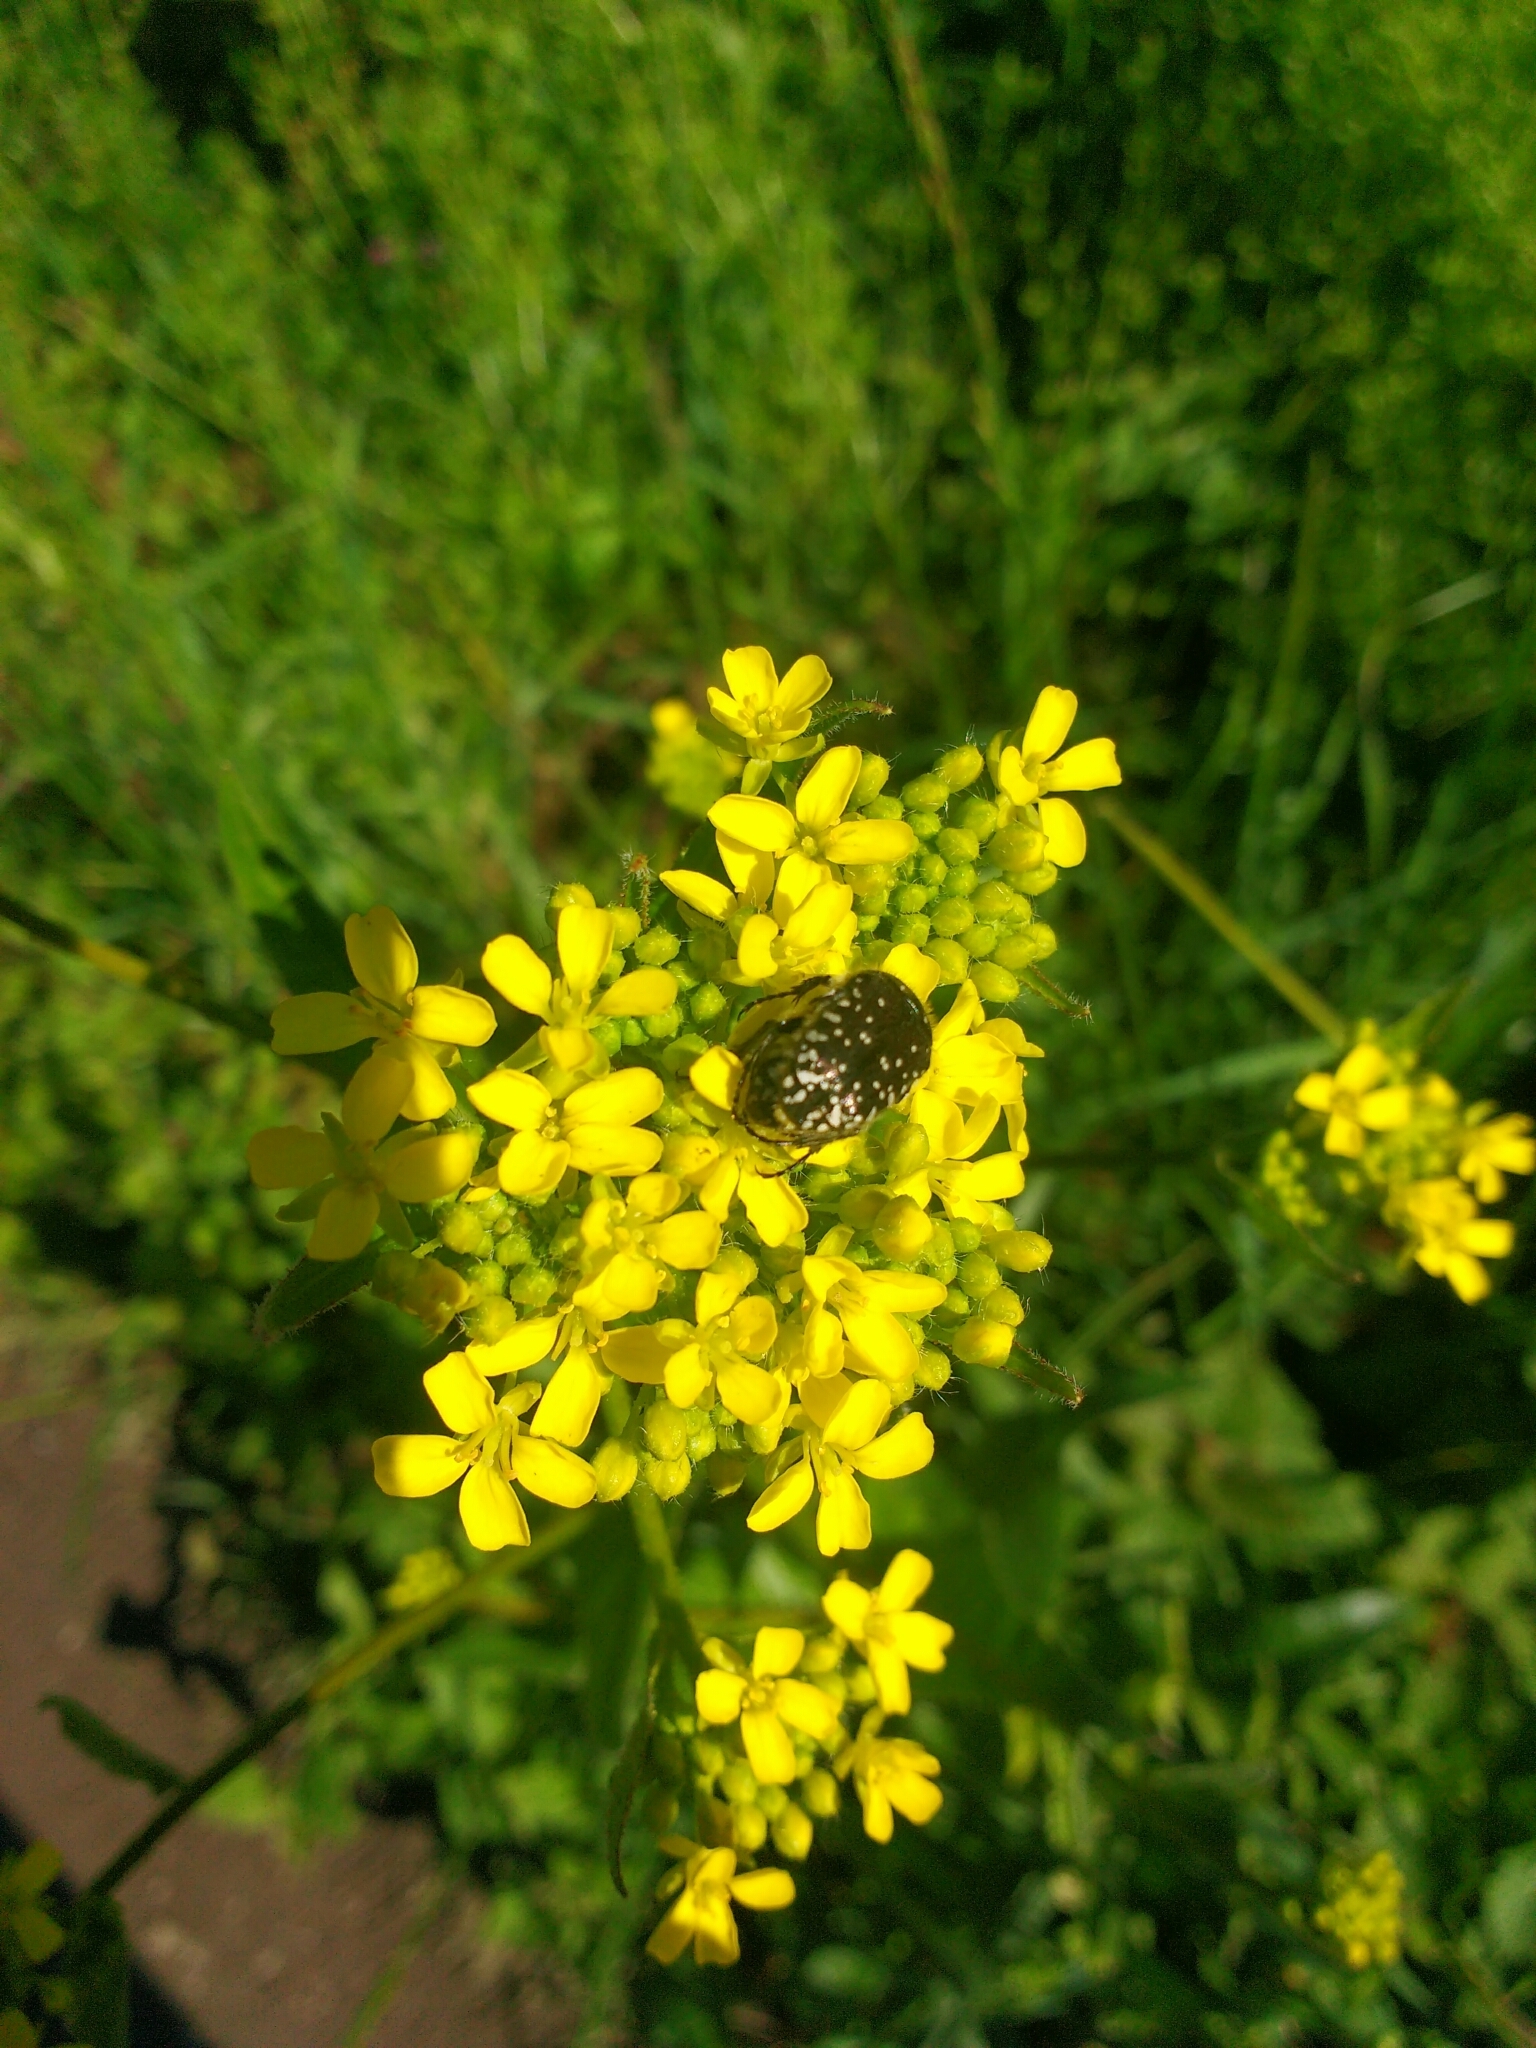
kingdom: Animalia
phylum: Arthropoda
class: Insecta
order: Coleoptera
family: Scarabaeidae
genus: Oxythyrea
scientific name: Oxythyrea funesta
